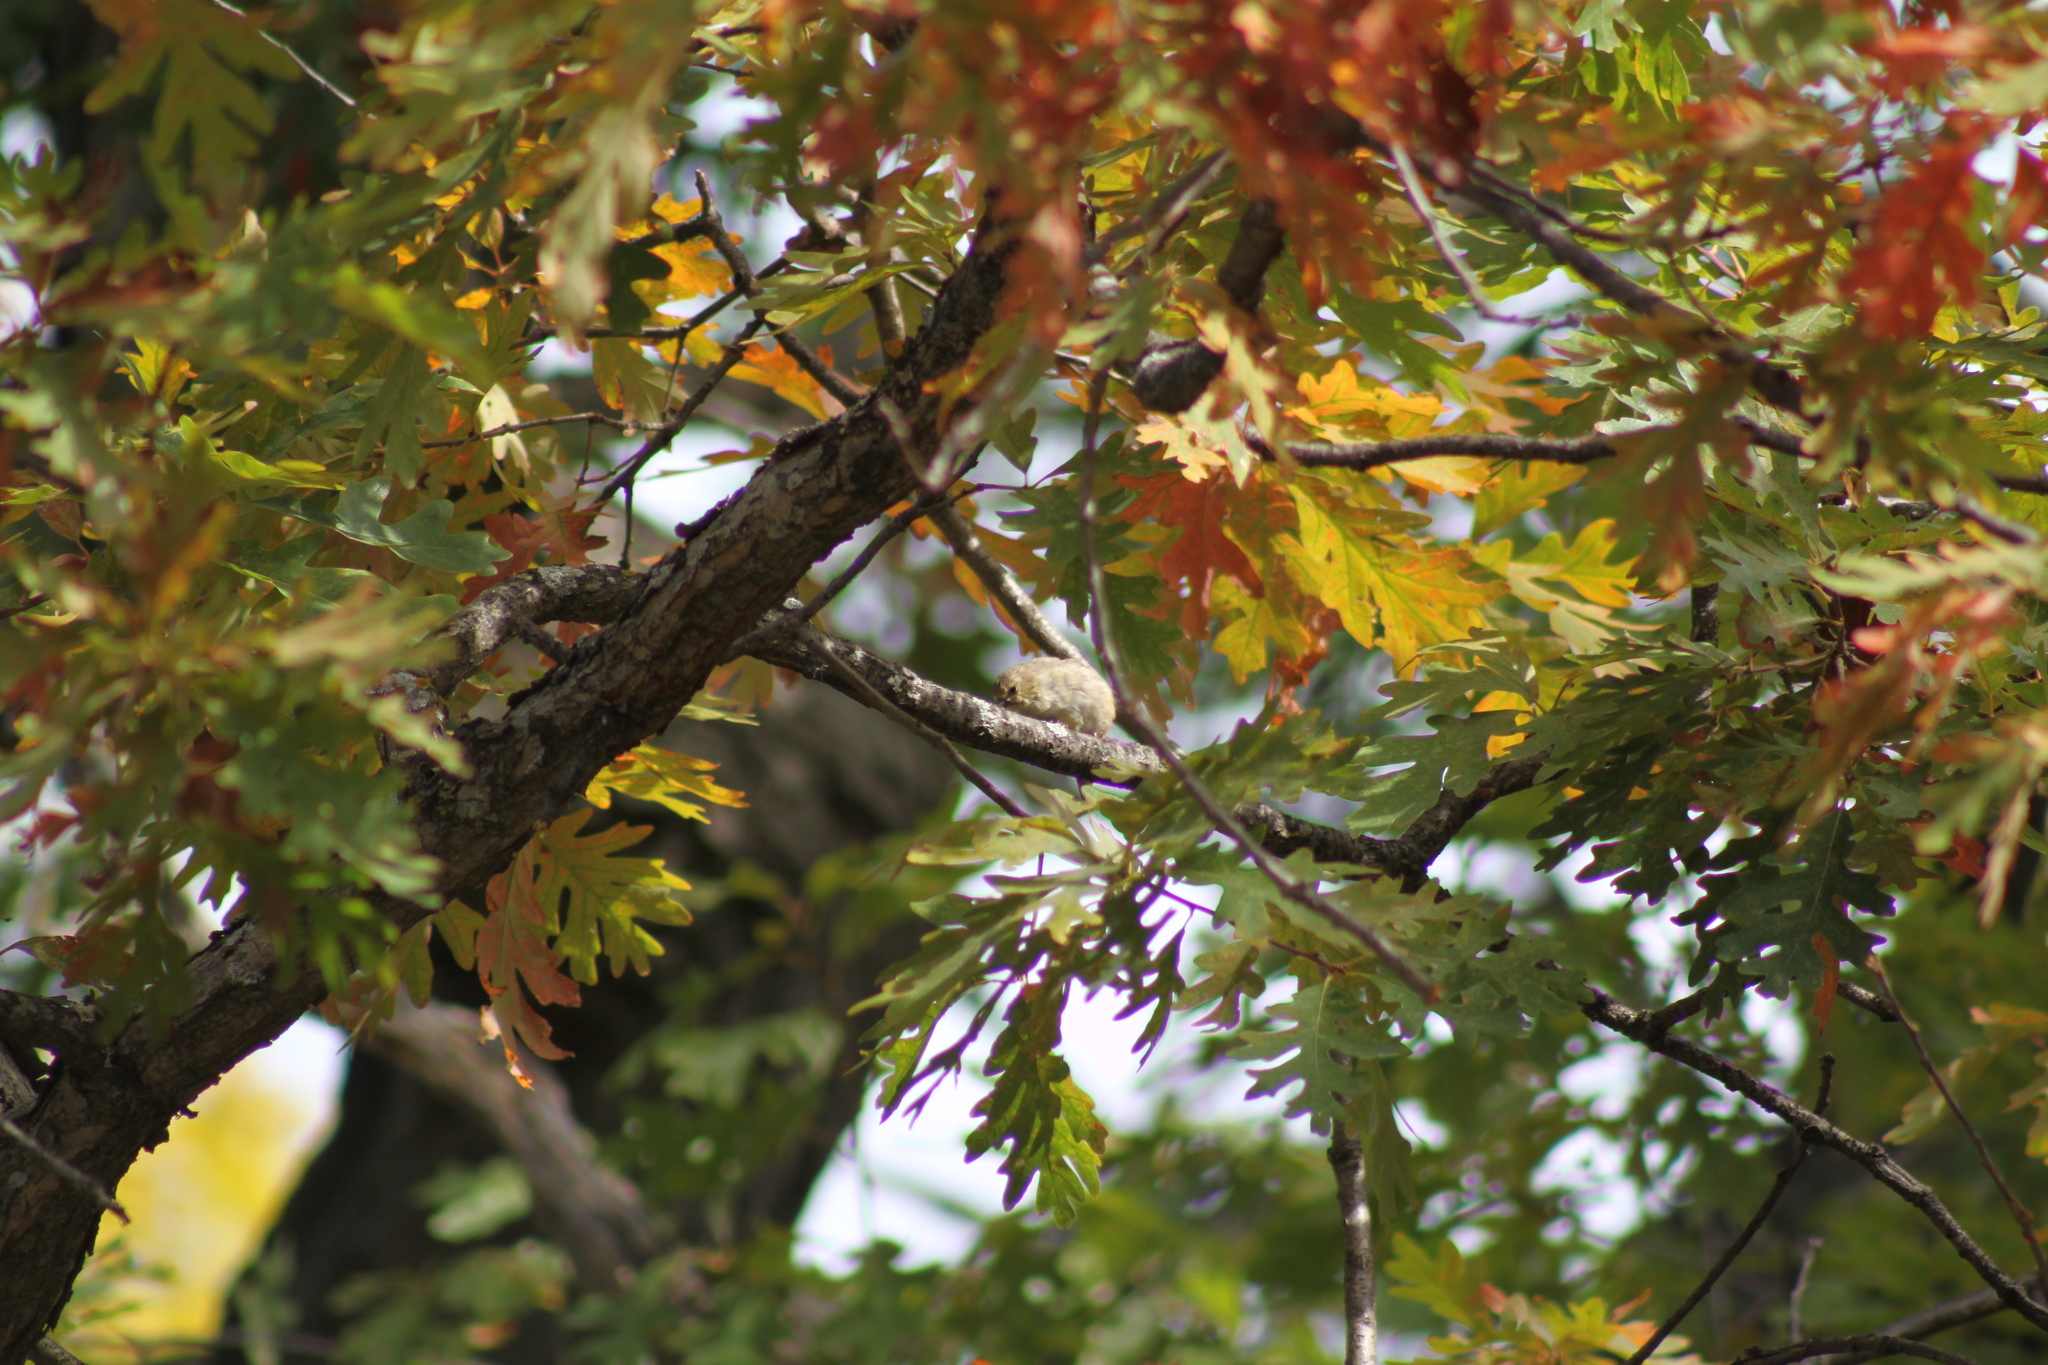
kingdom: Animalia
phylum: Chordata
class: Aves
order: Passeriformes
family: Fringillidae
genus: Spinus
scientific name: Spinus tristis
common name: American goldfinch
